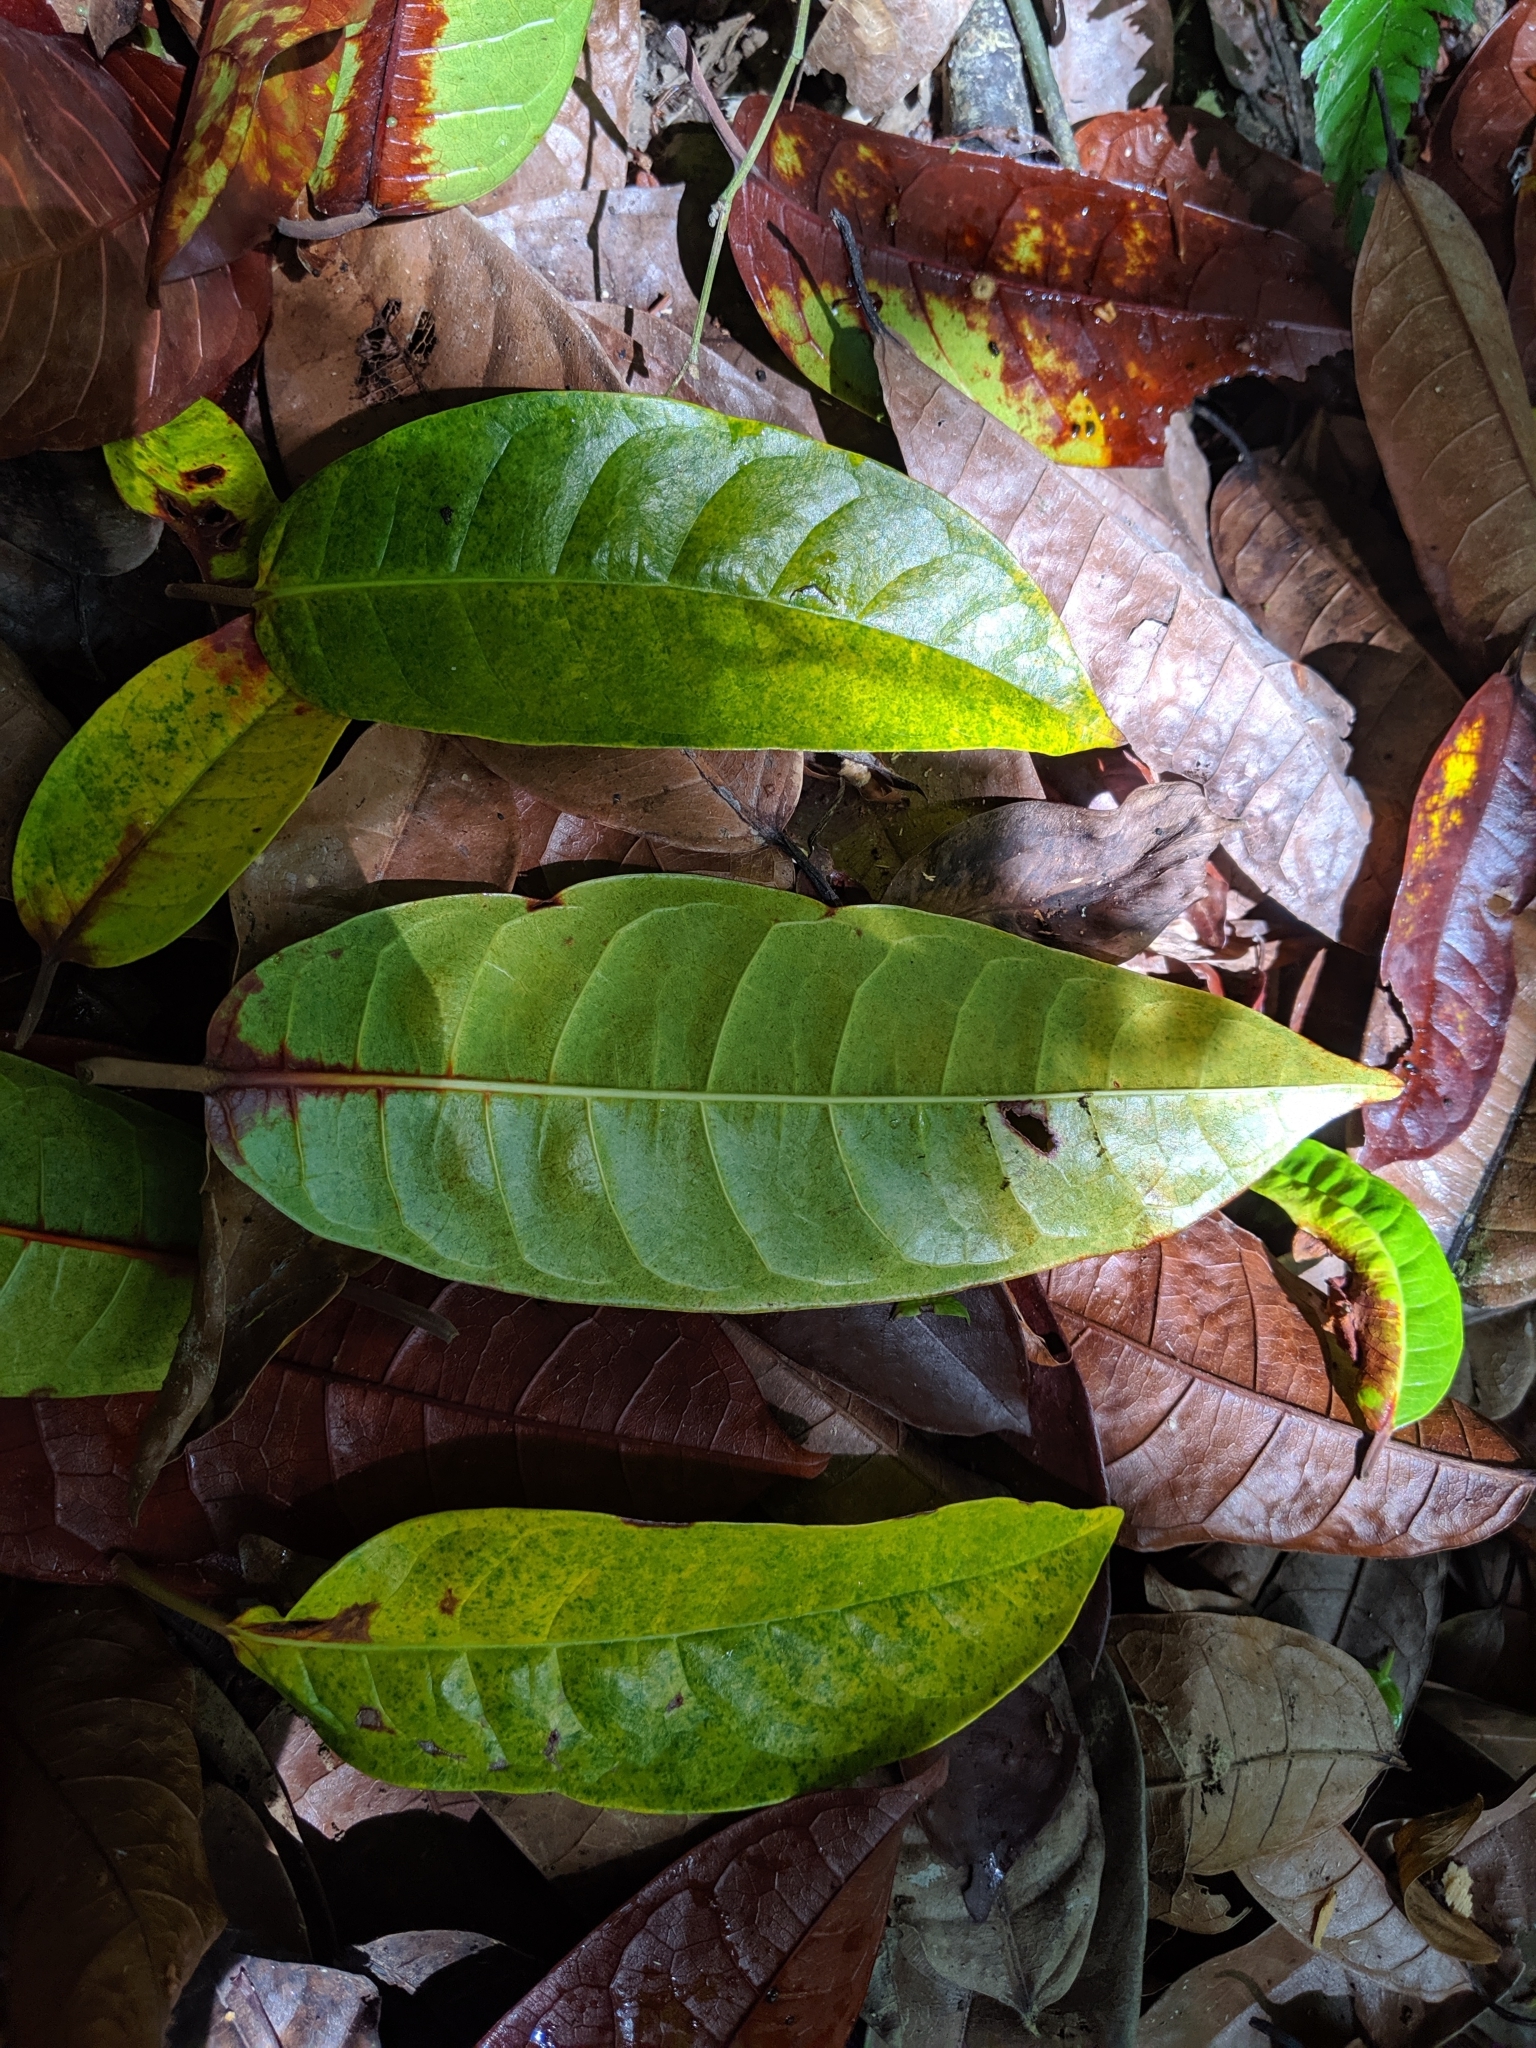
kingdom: Plantae
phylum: Tracheophyta
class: Magnoliopsida
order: Rosales
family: Moraceae
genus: Ficus
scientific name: Ficus nervosa
